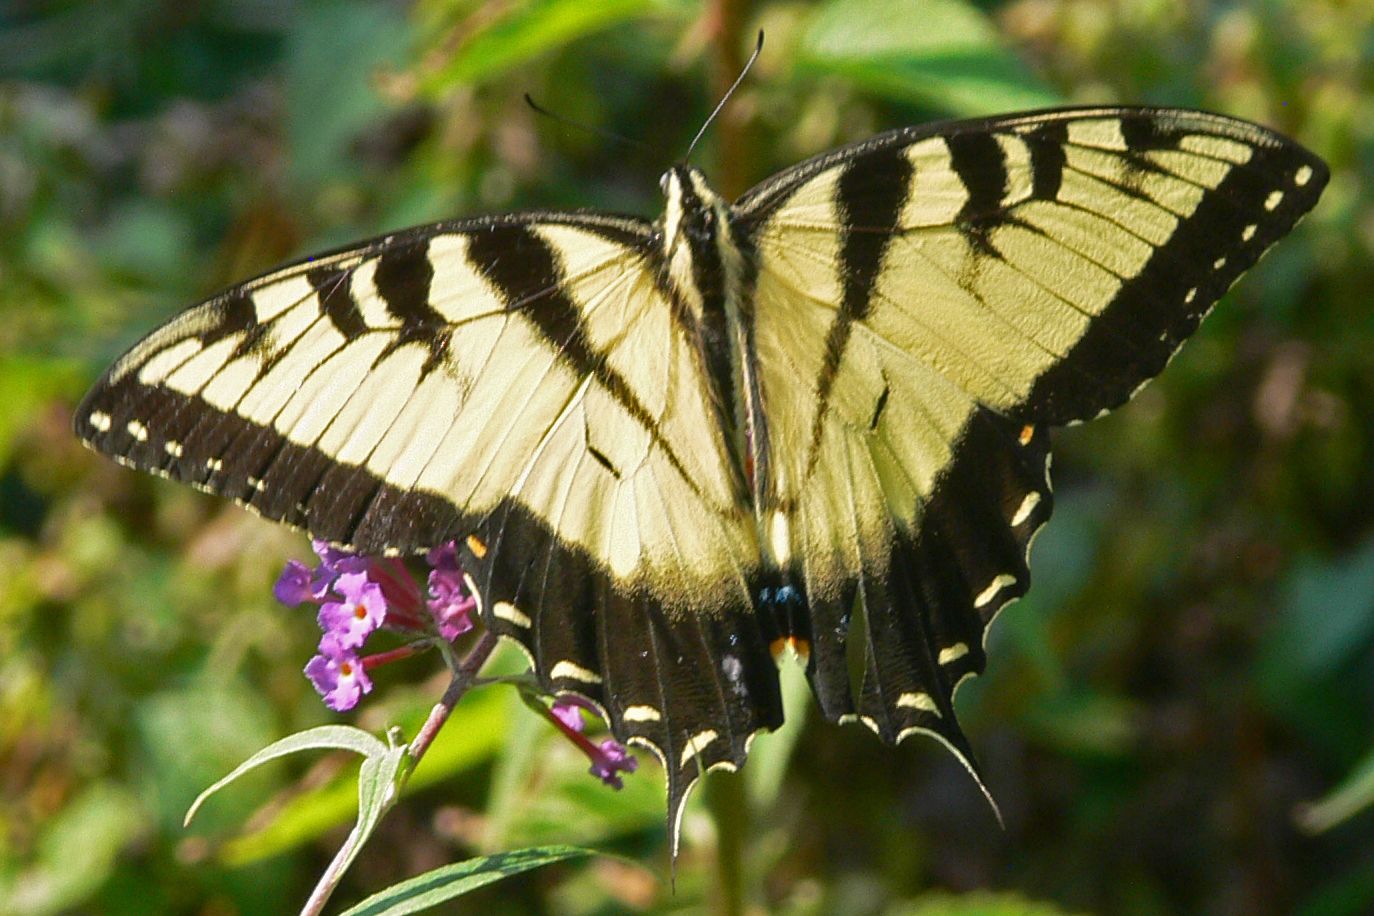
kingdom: Animalia
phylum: Arthropoda
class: Insecta
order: Lepidoptera
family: Papilionidae
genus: Papilio
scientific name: Papilio glaucus
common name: Tiger swallowtail
